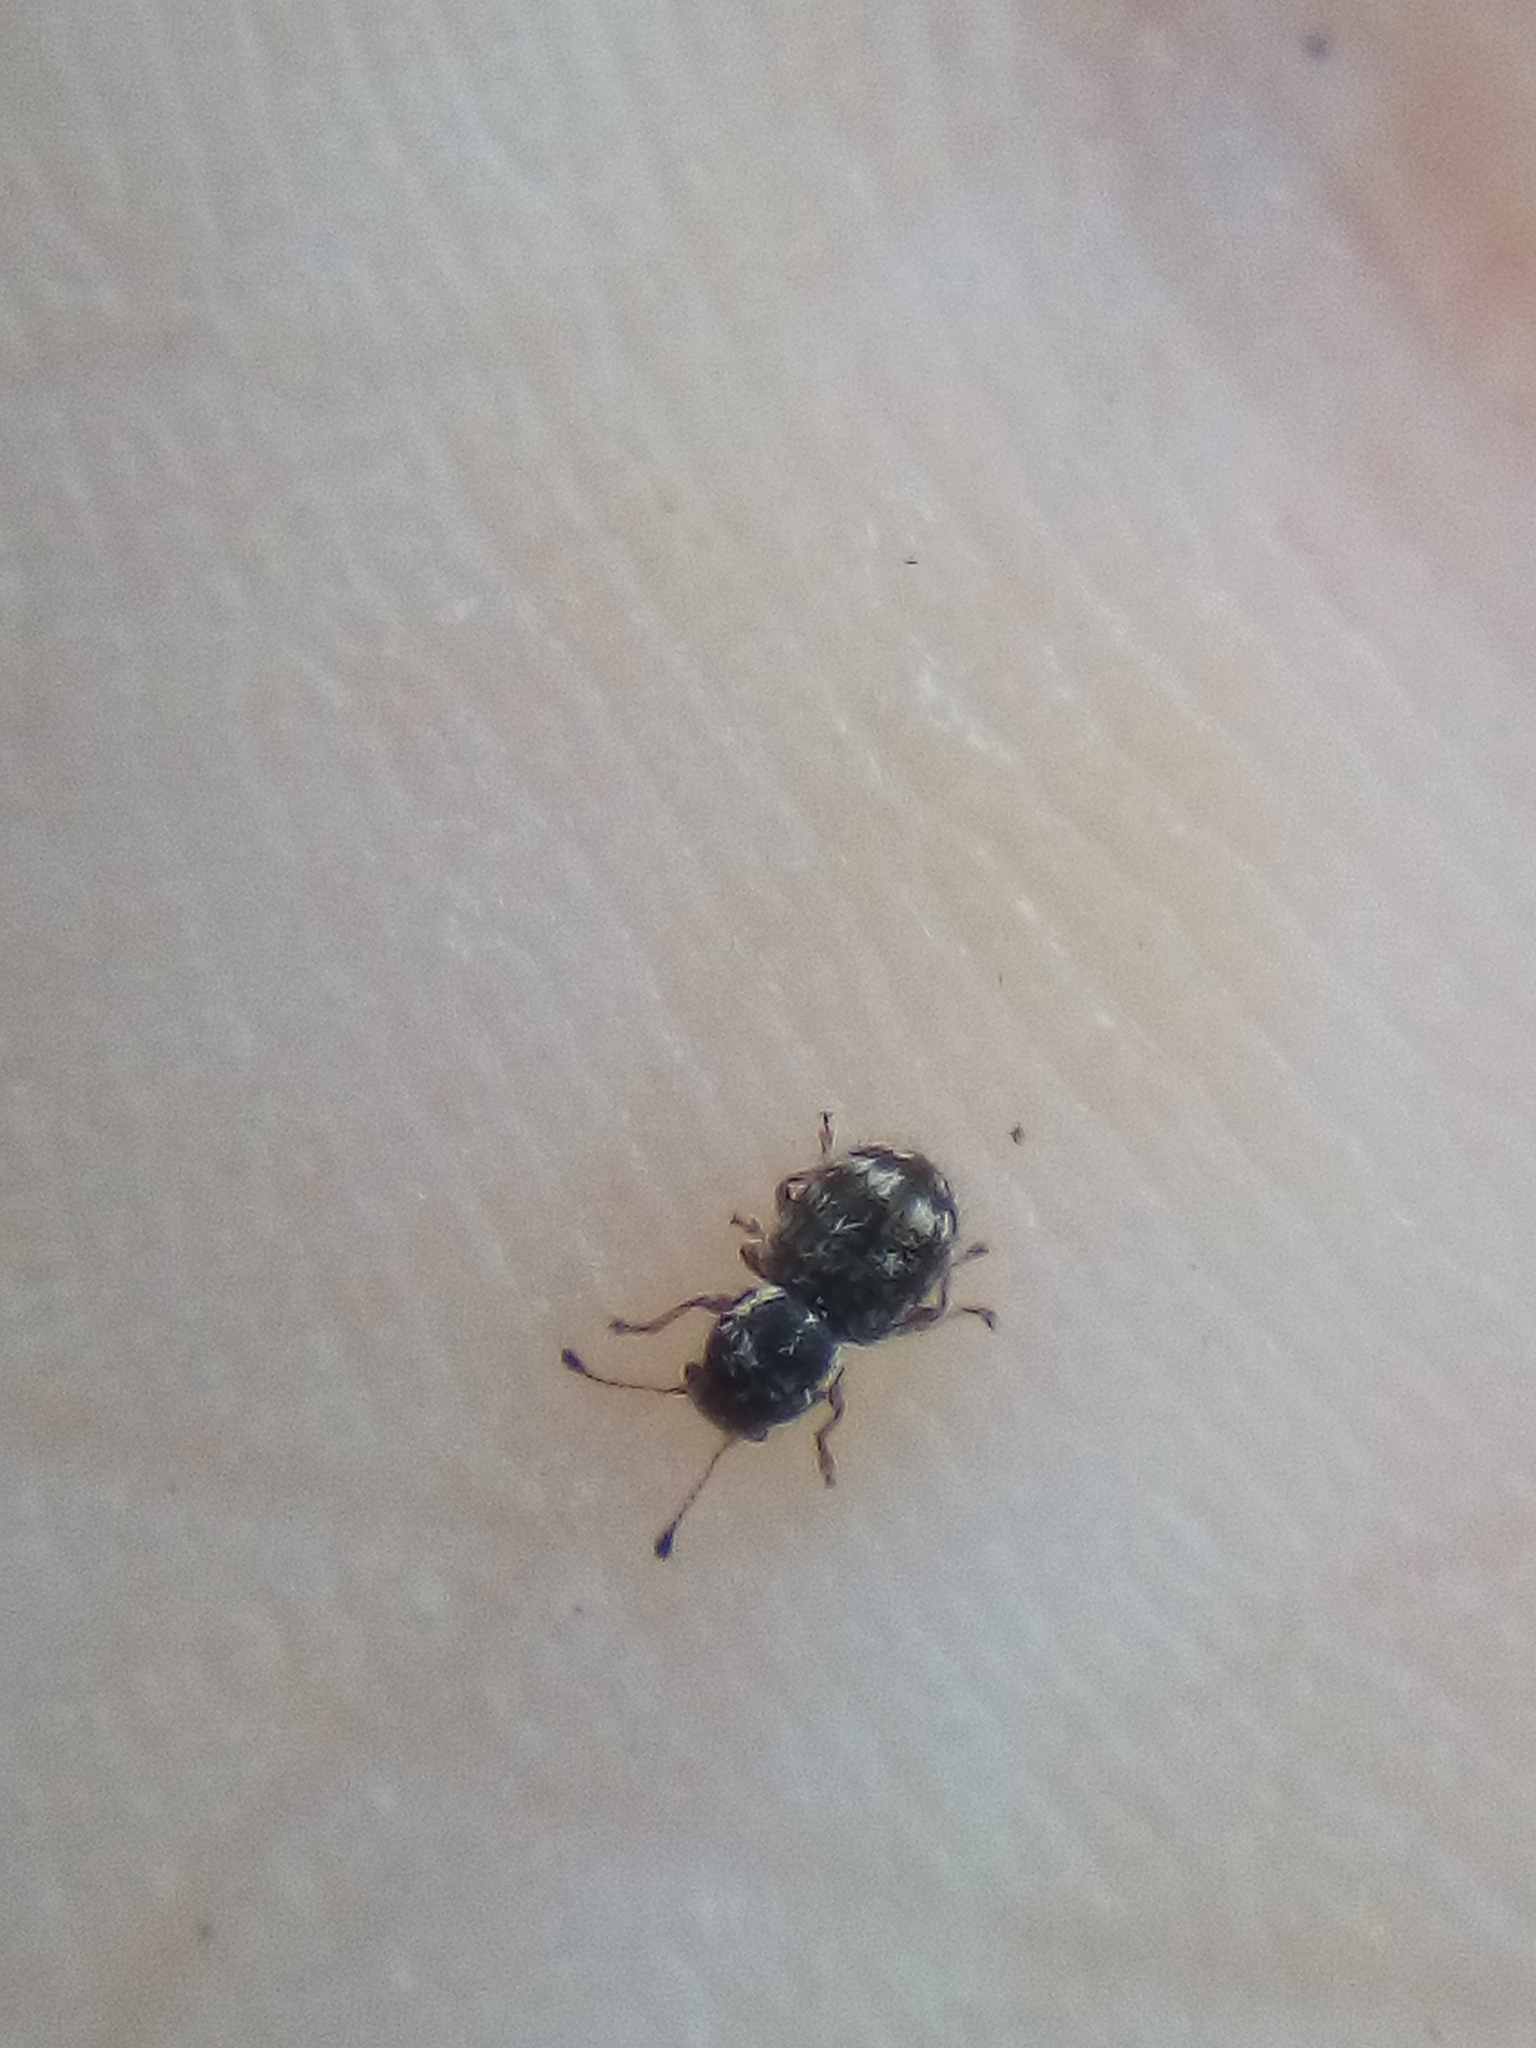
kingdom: Animalia
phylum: Arthropoda
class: Insecta
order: Coleoptera
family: Anthribidae
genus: Dasyanthribus
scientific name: Dasyanthribus purpureus
